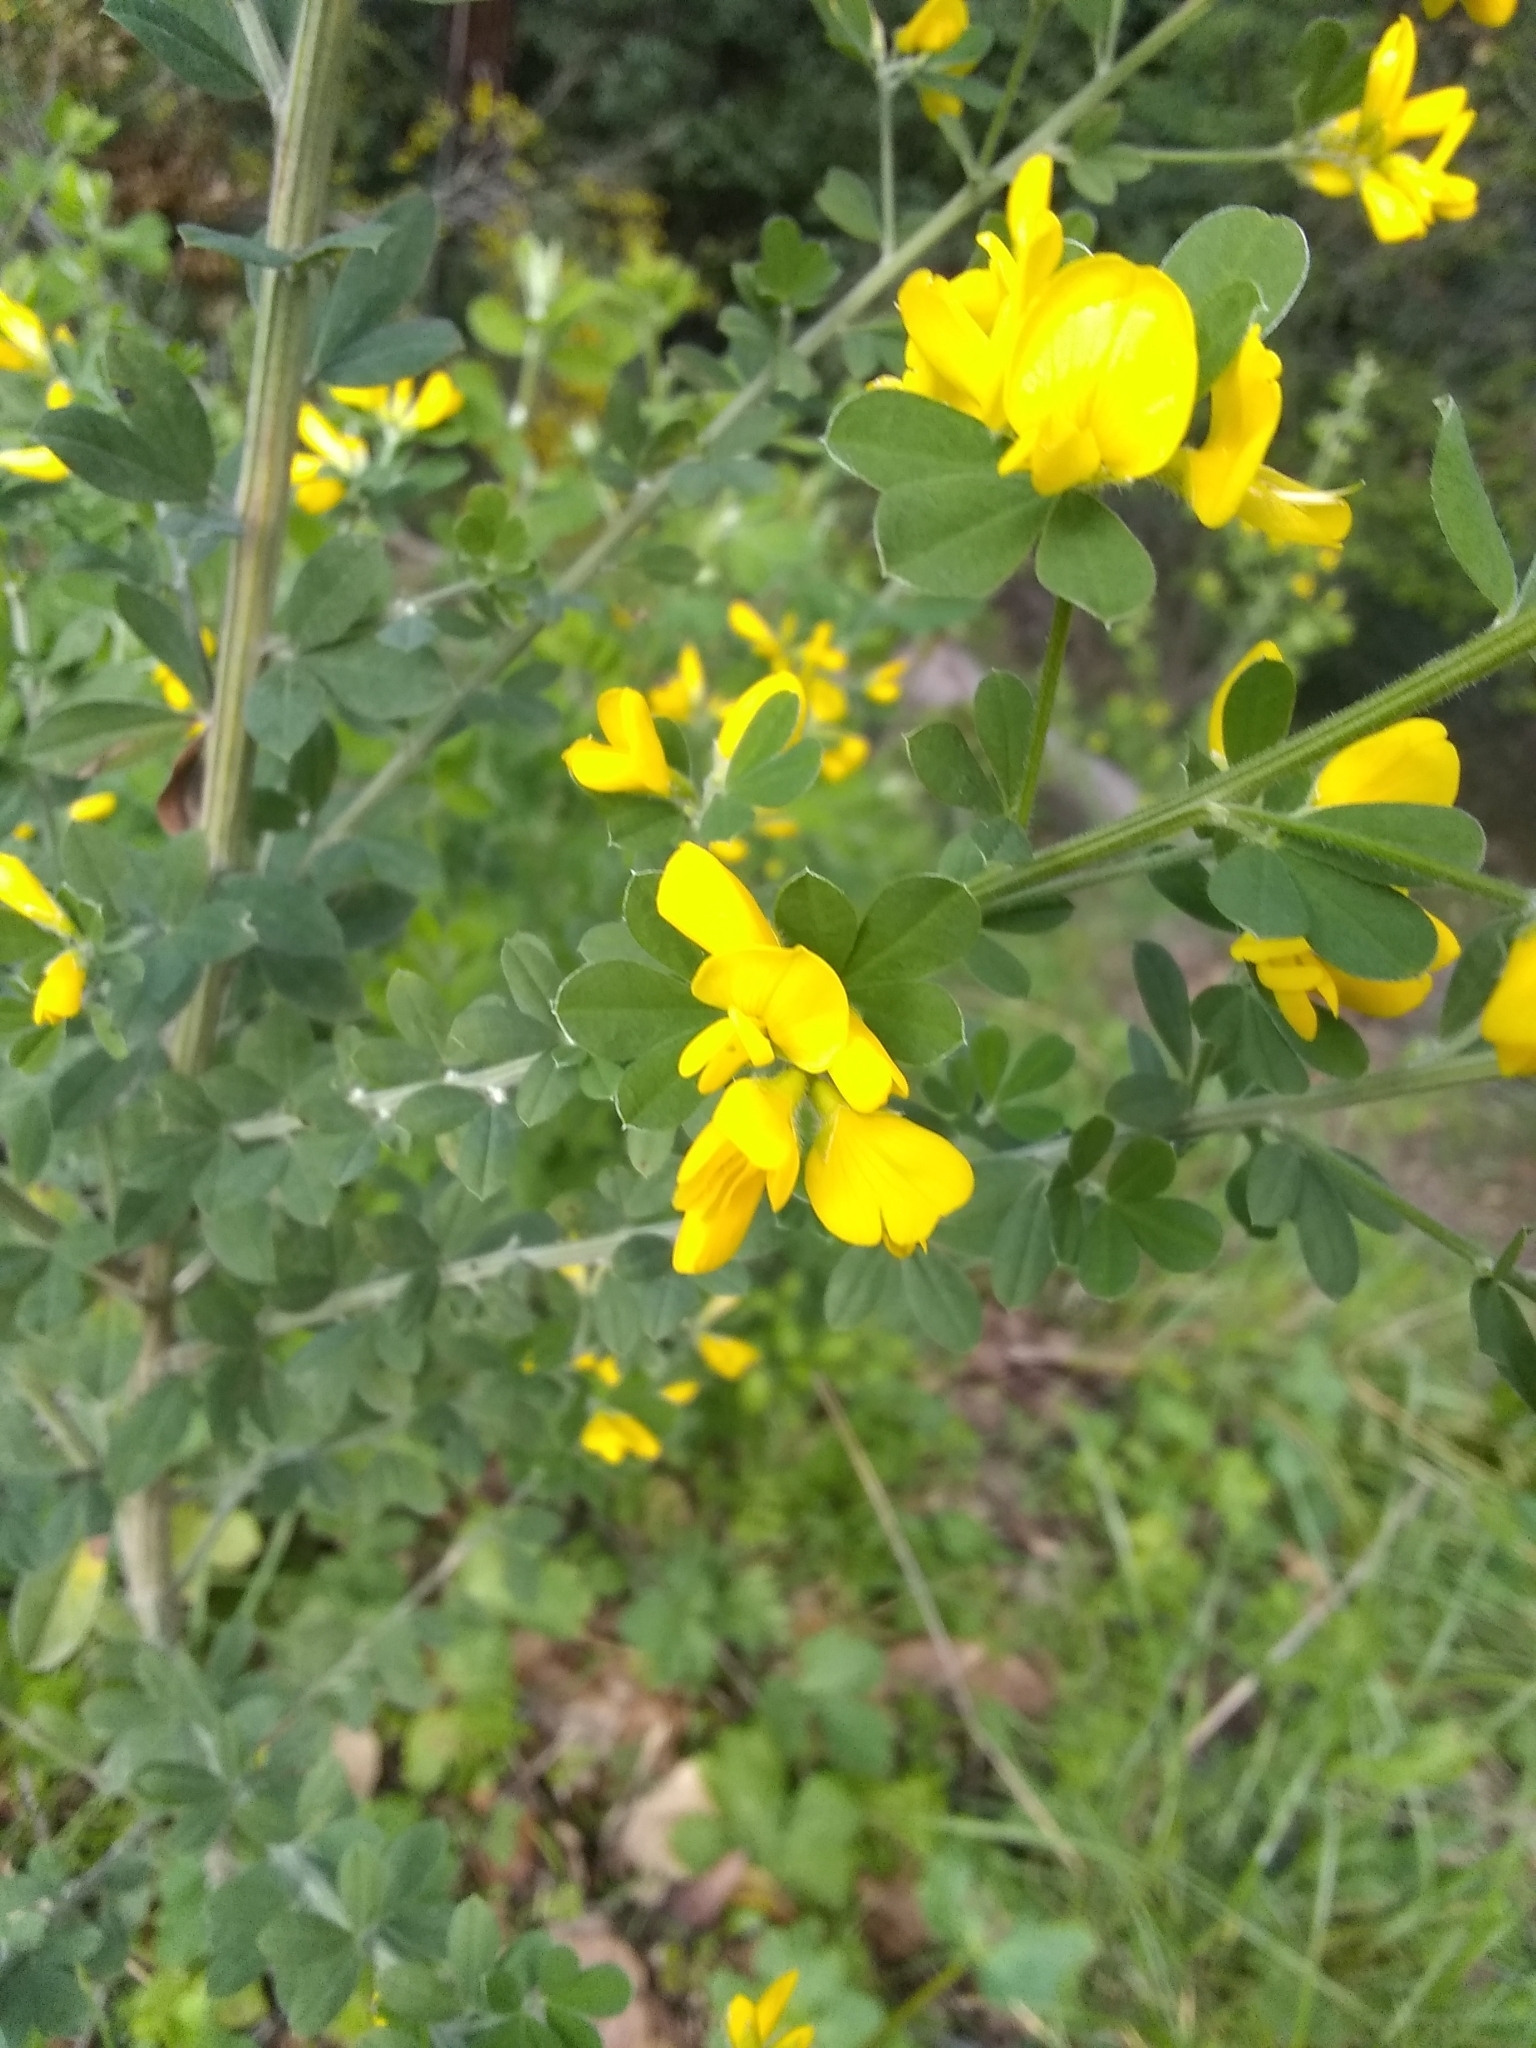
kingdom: Plantae
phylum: Tracheophyta
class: Magnoliopsida
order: Fabales
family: Fabaceae
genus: Genista
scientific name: Genista monspessulana
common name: Montpellier broom
